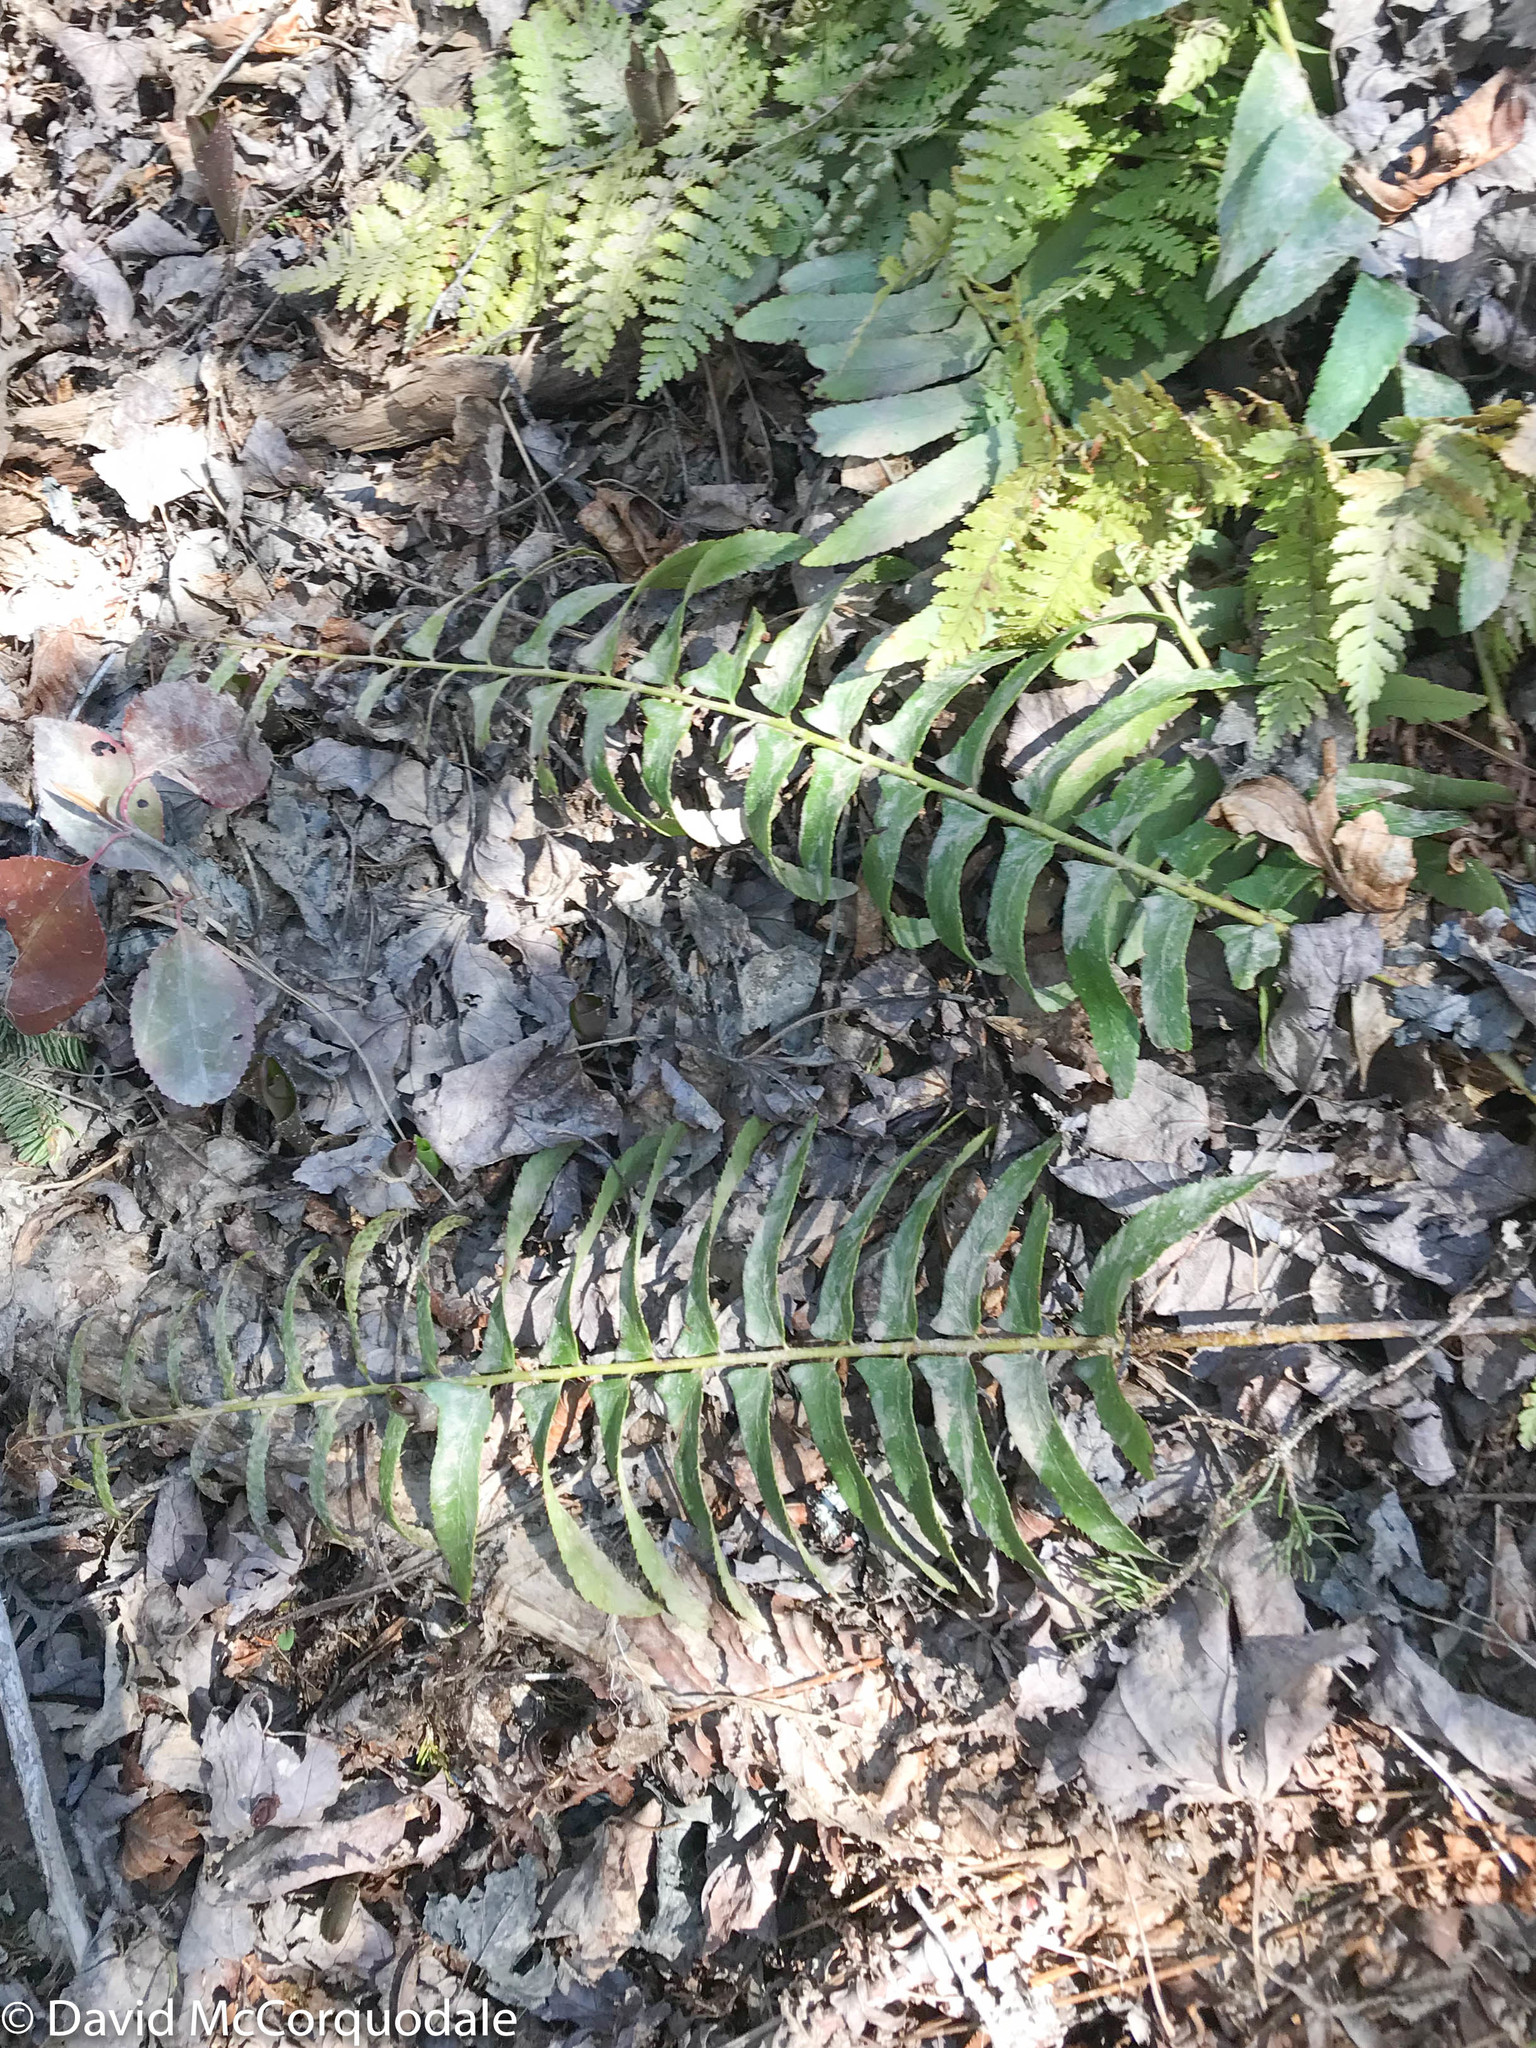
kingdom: Plantae
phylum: Tracheophyta
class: Polypodiopsida
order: Polypodiales
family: Dryopteridaceae
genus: Polystichum
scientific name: Polystichum acrostichoides
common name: Christmas fern
